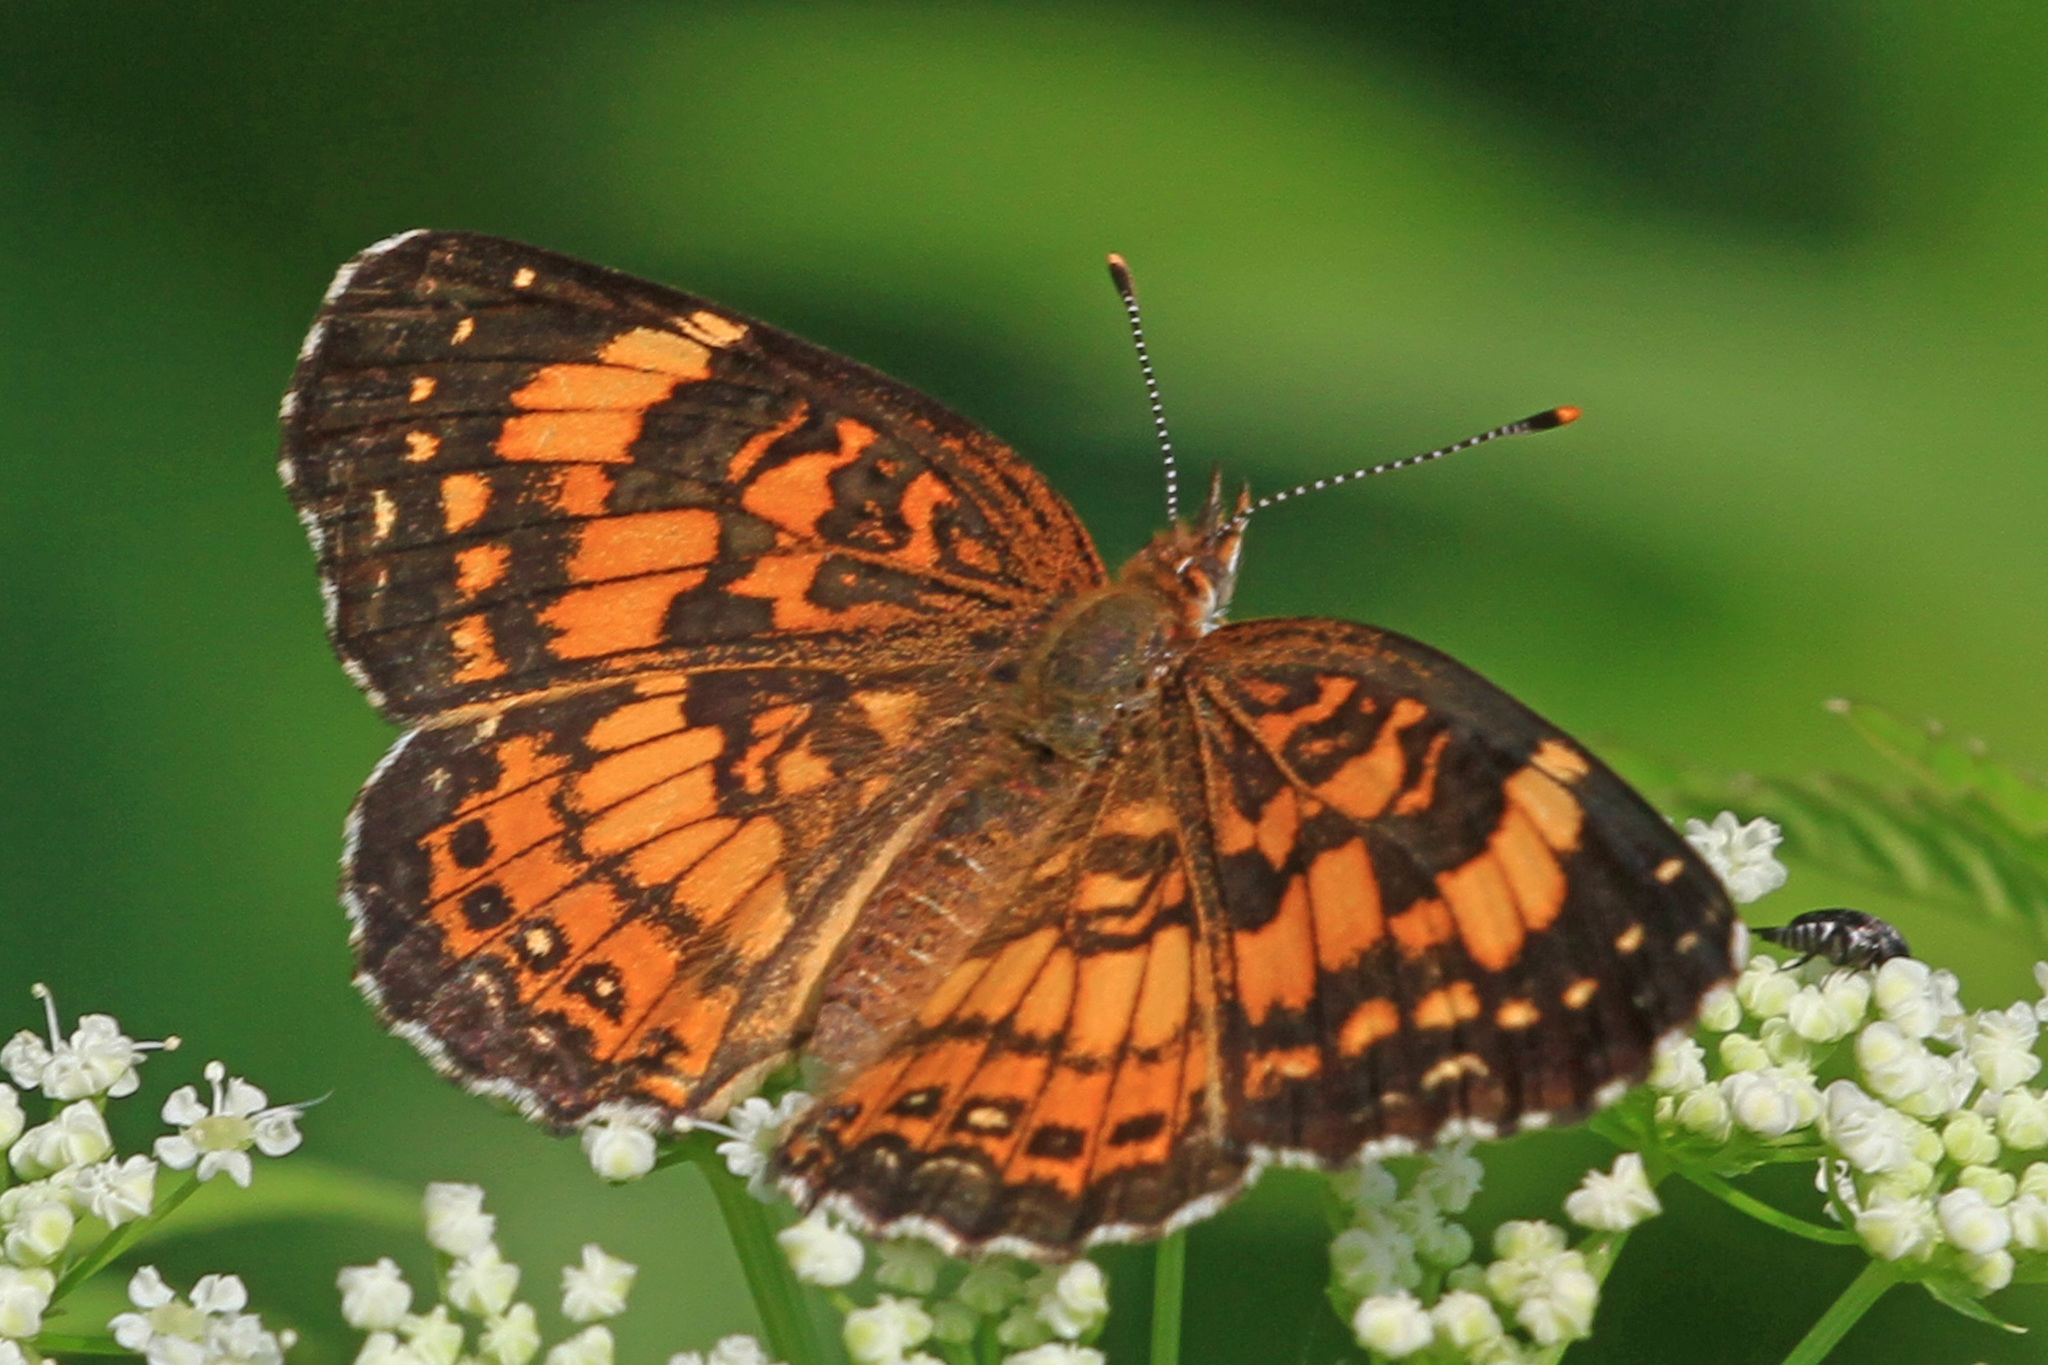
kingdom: Animalia
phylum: Arthropoda
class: Insecta
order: Lepidoptera
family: Nymphalidae
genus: Chlosyne
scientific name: Chlosyne nycteis
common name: Silvery checkerspot
